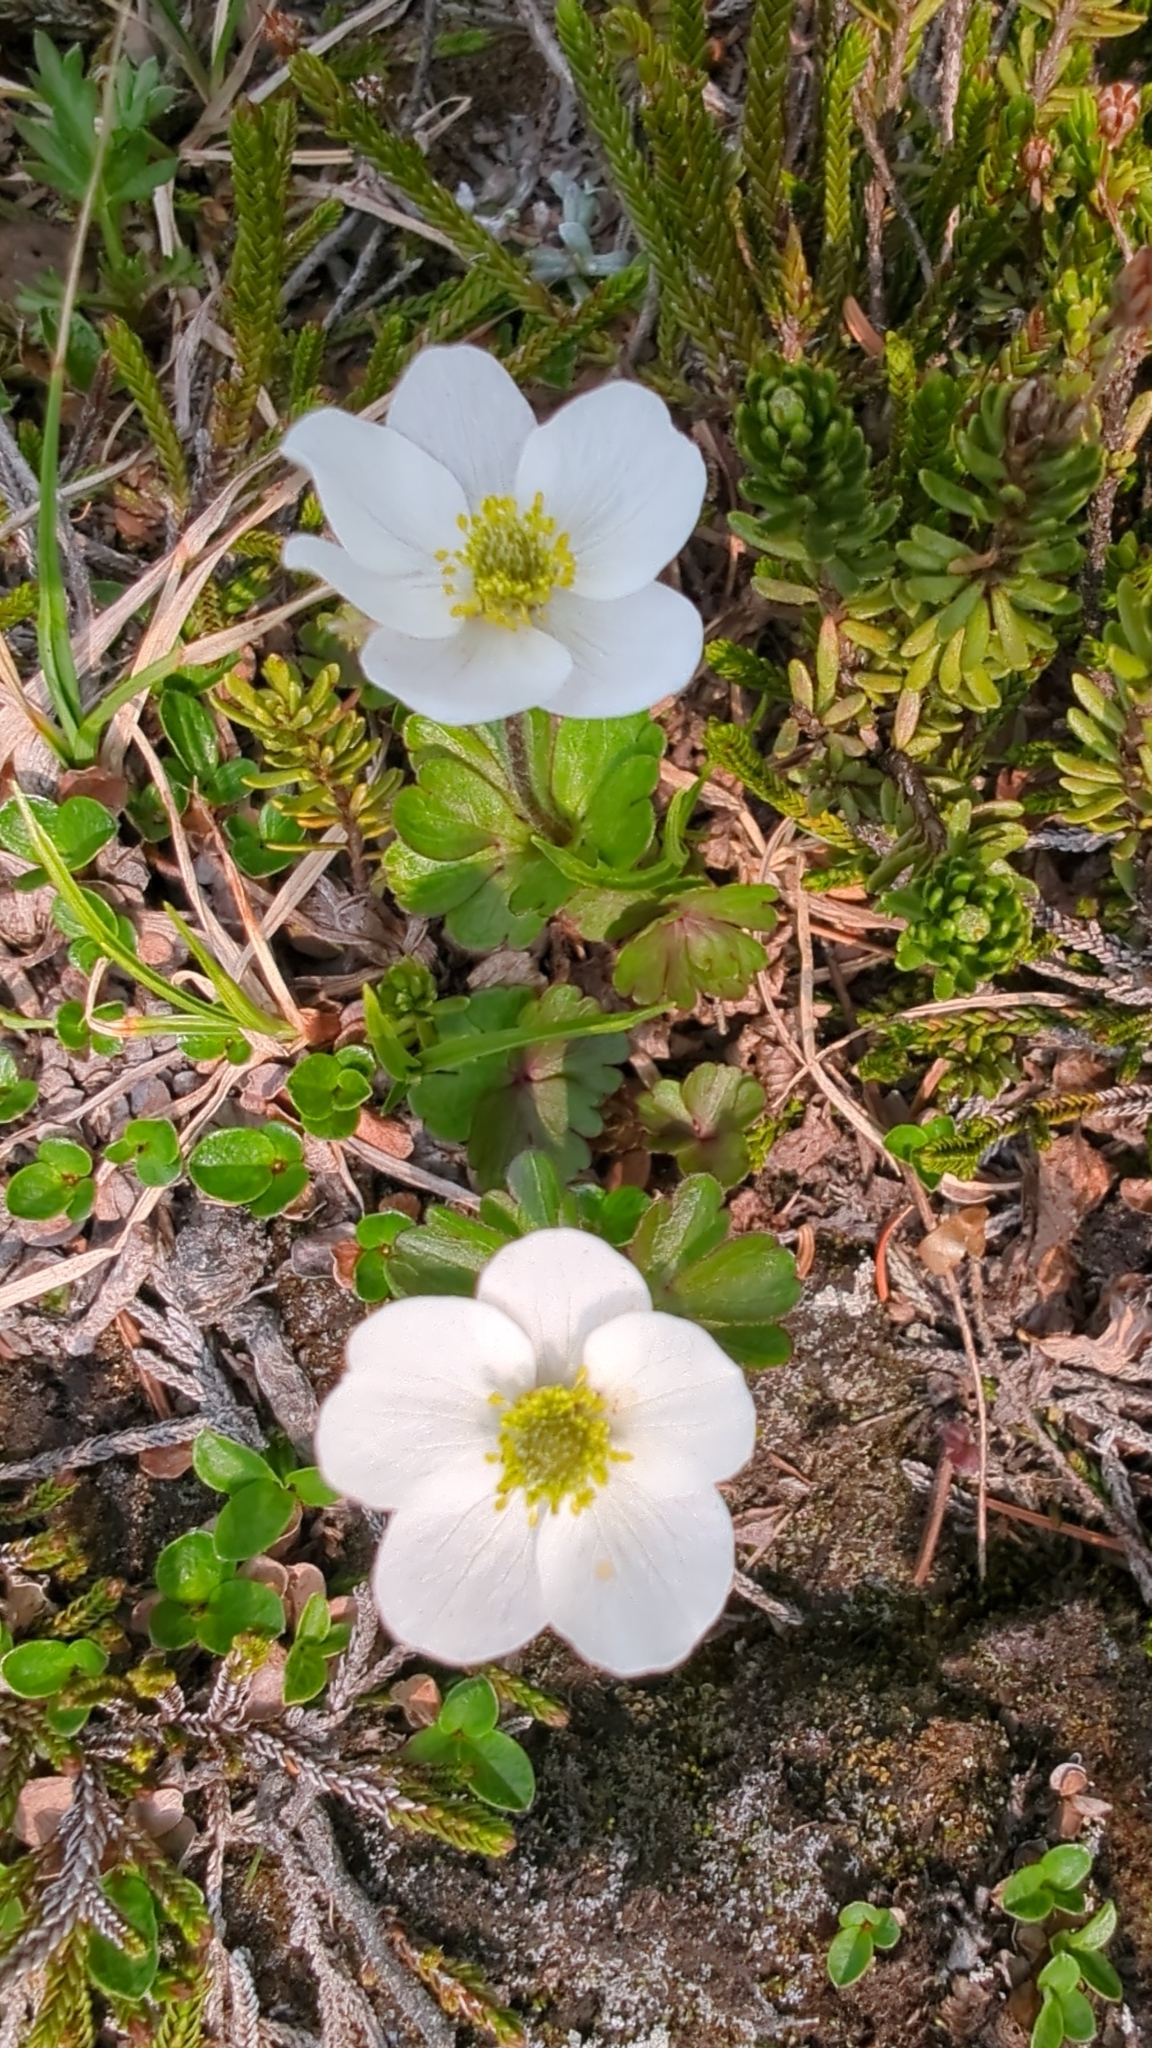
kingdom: Plantae
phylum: Tracheophyta
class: Magnoliopsida
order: Ranunculales
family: Ranunculaceae
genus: Anemone
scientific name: Anemone parviflora
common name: Northern anemone
